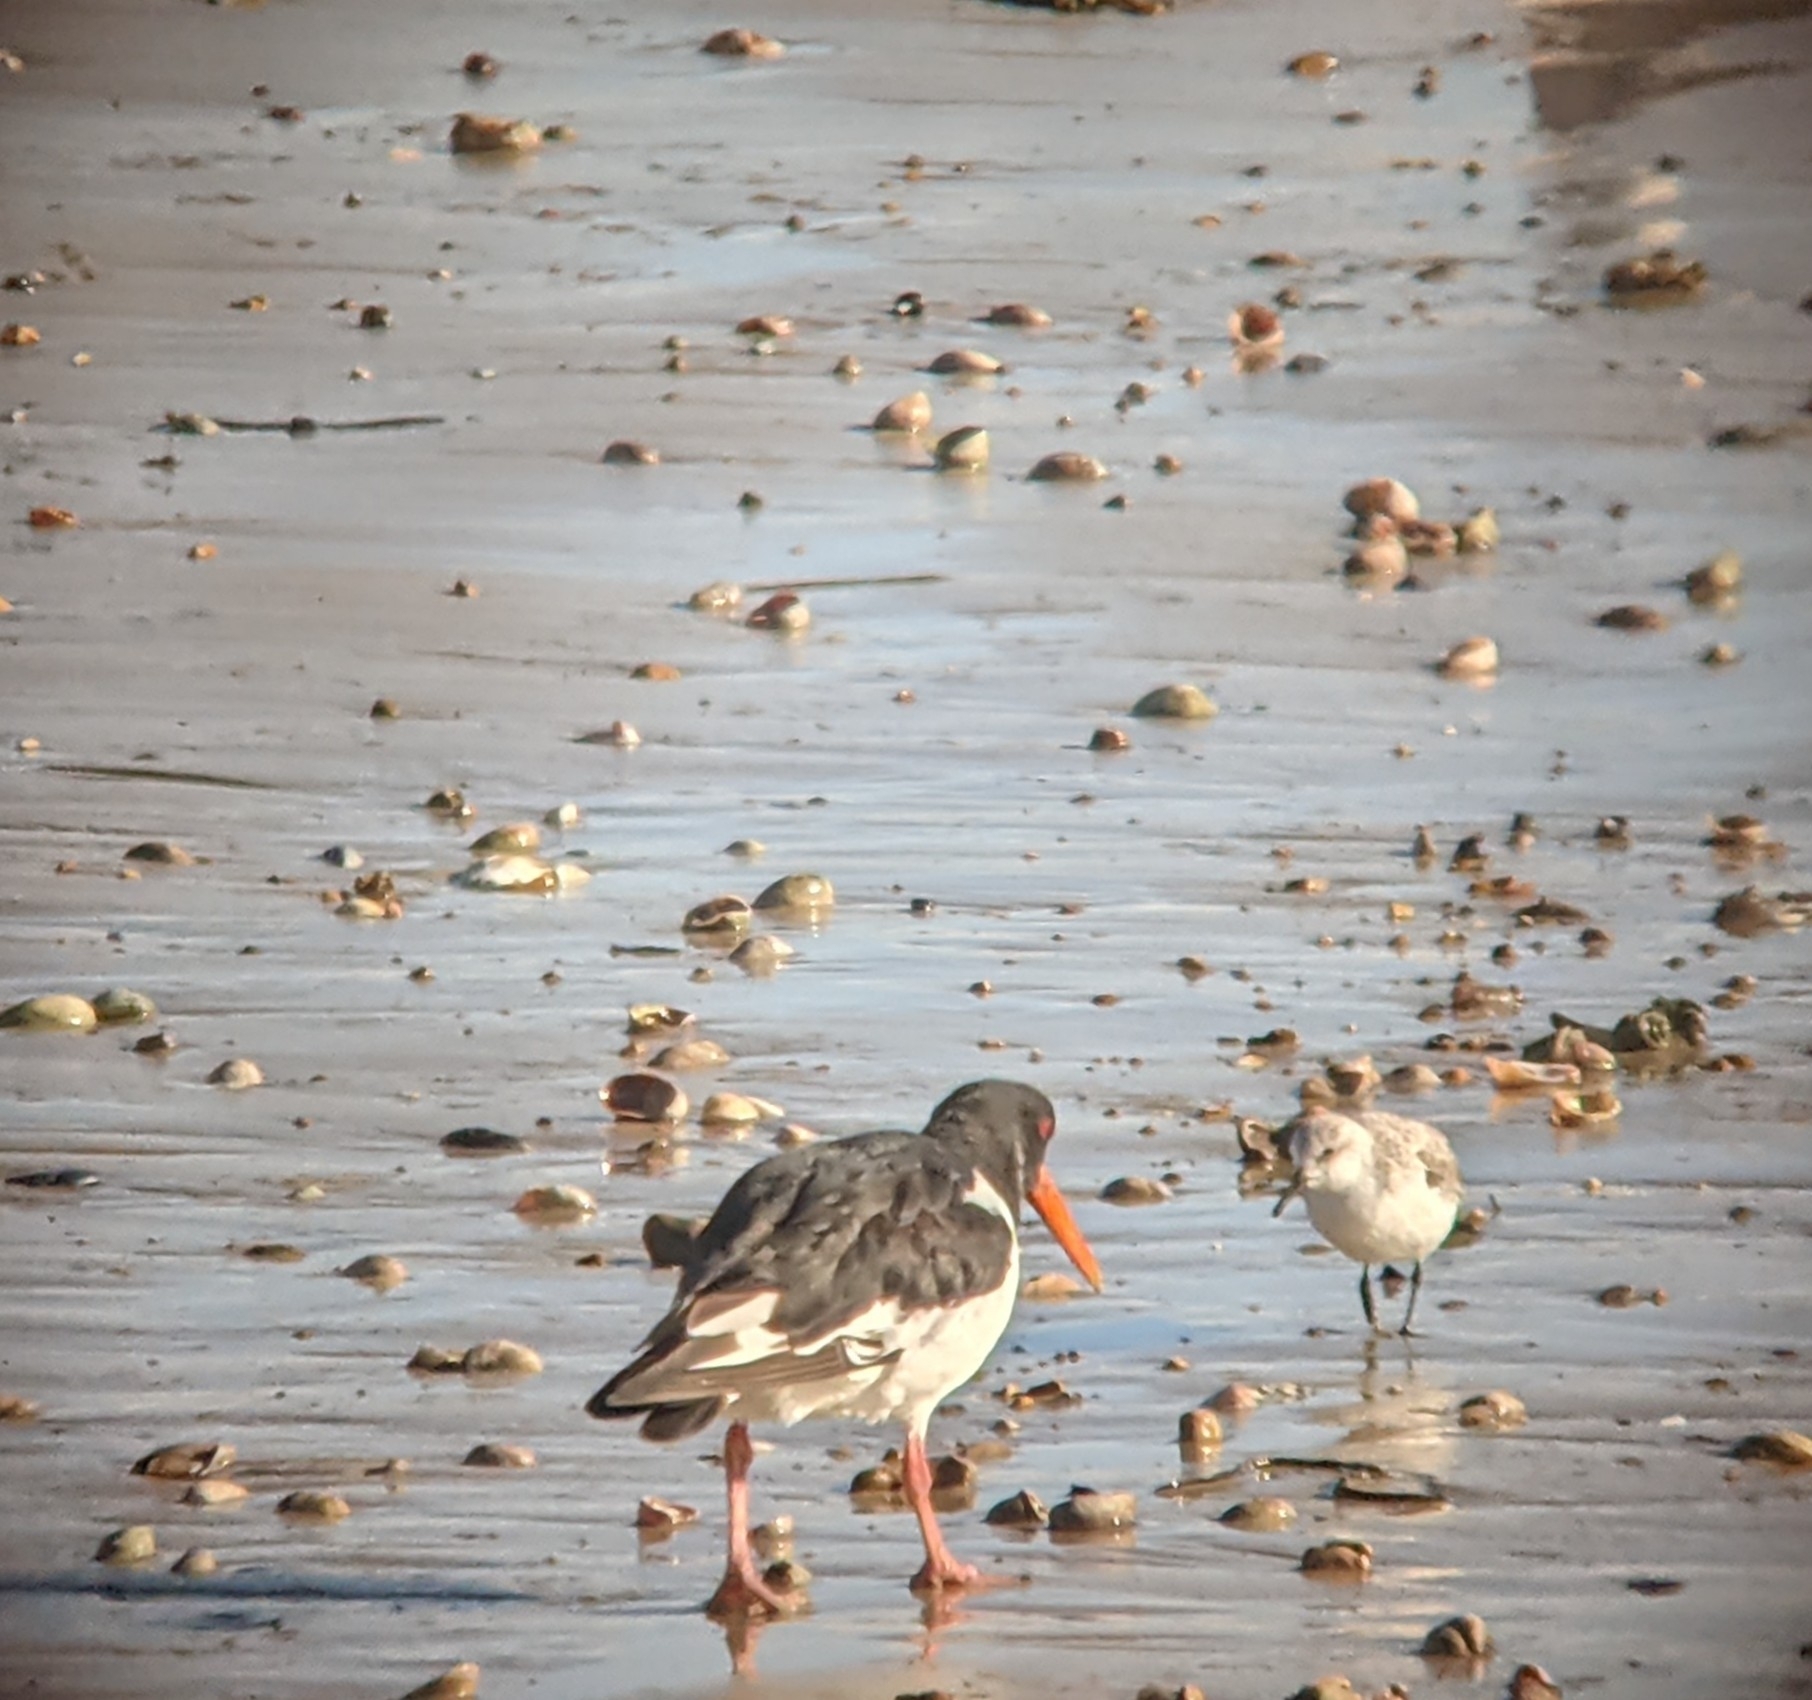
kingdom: Animalia
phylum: Chordata
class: Aves
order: Charadriiformes
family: Haematopodidae
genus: Haematopus
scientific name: Haematopus ostralegus
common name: Eurasian oystercatcher
